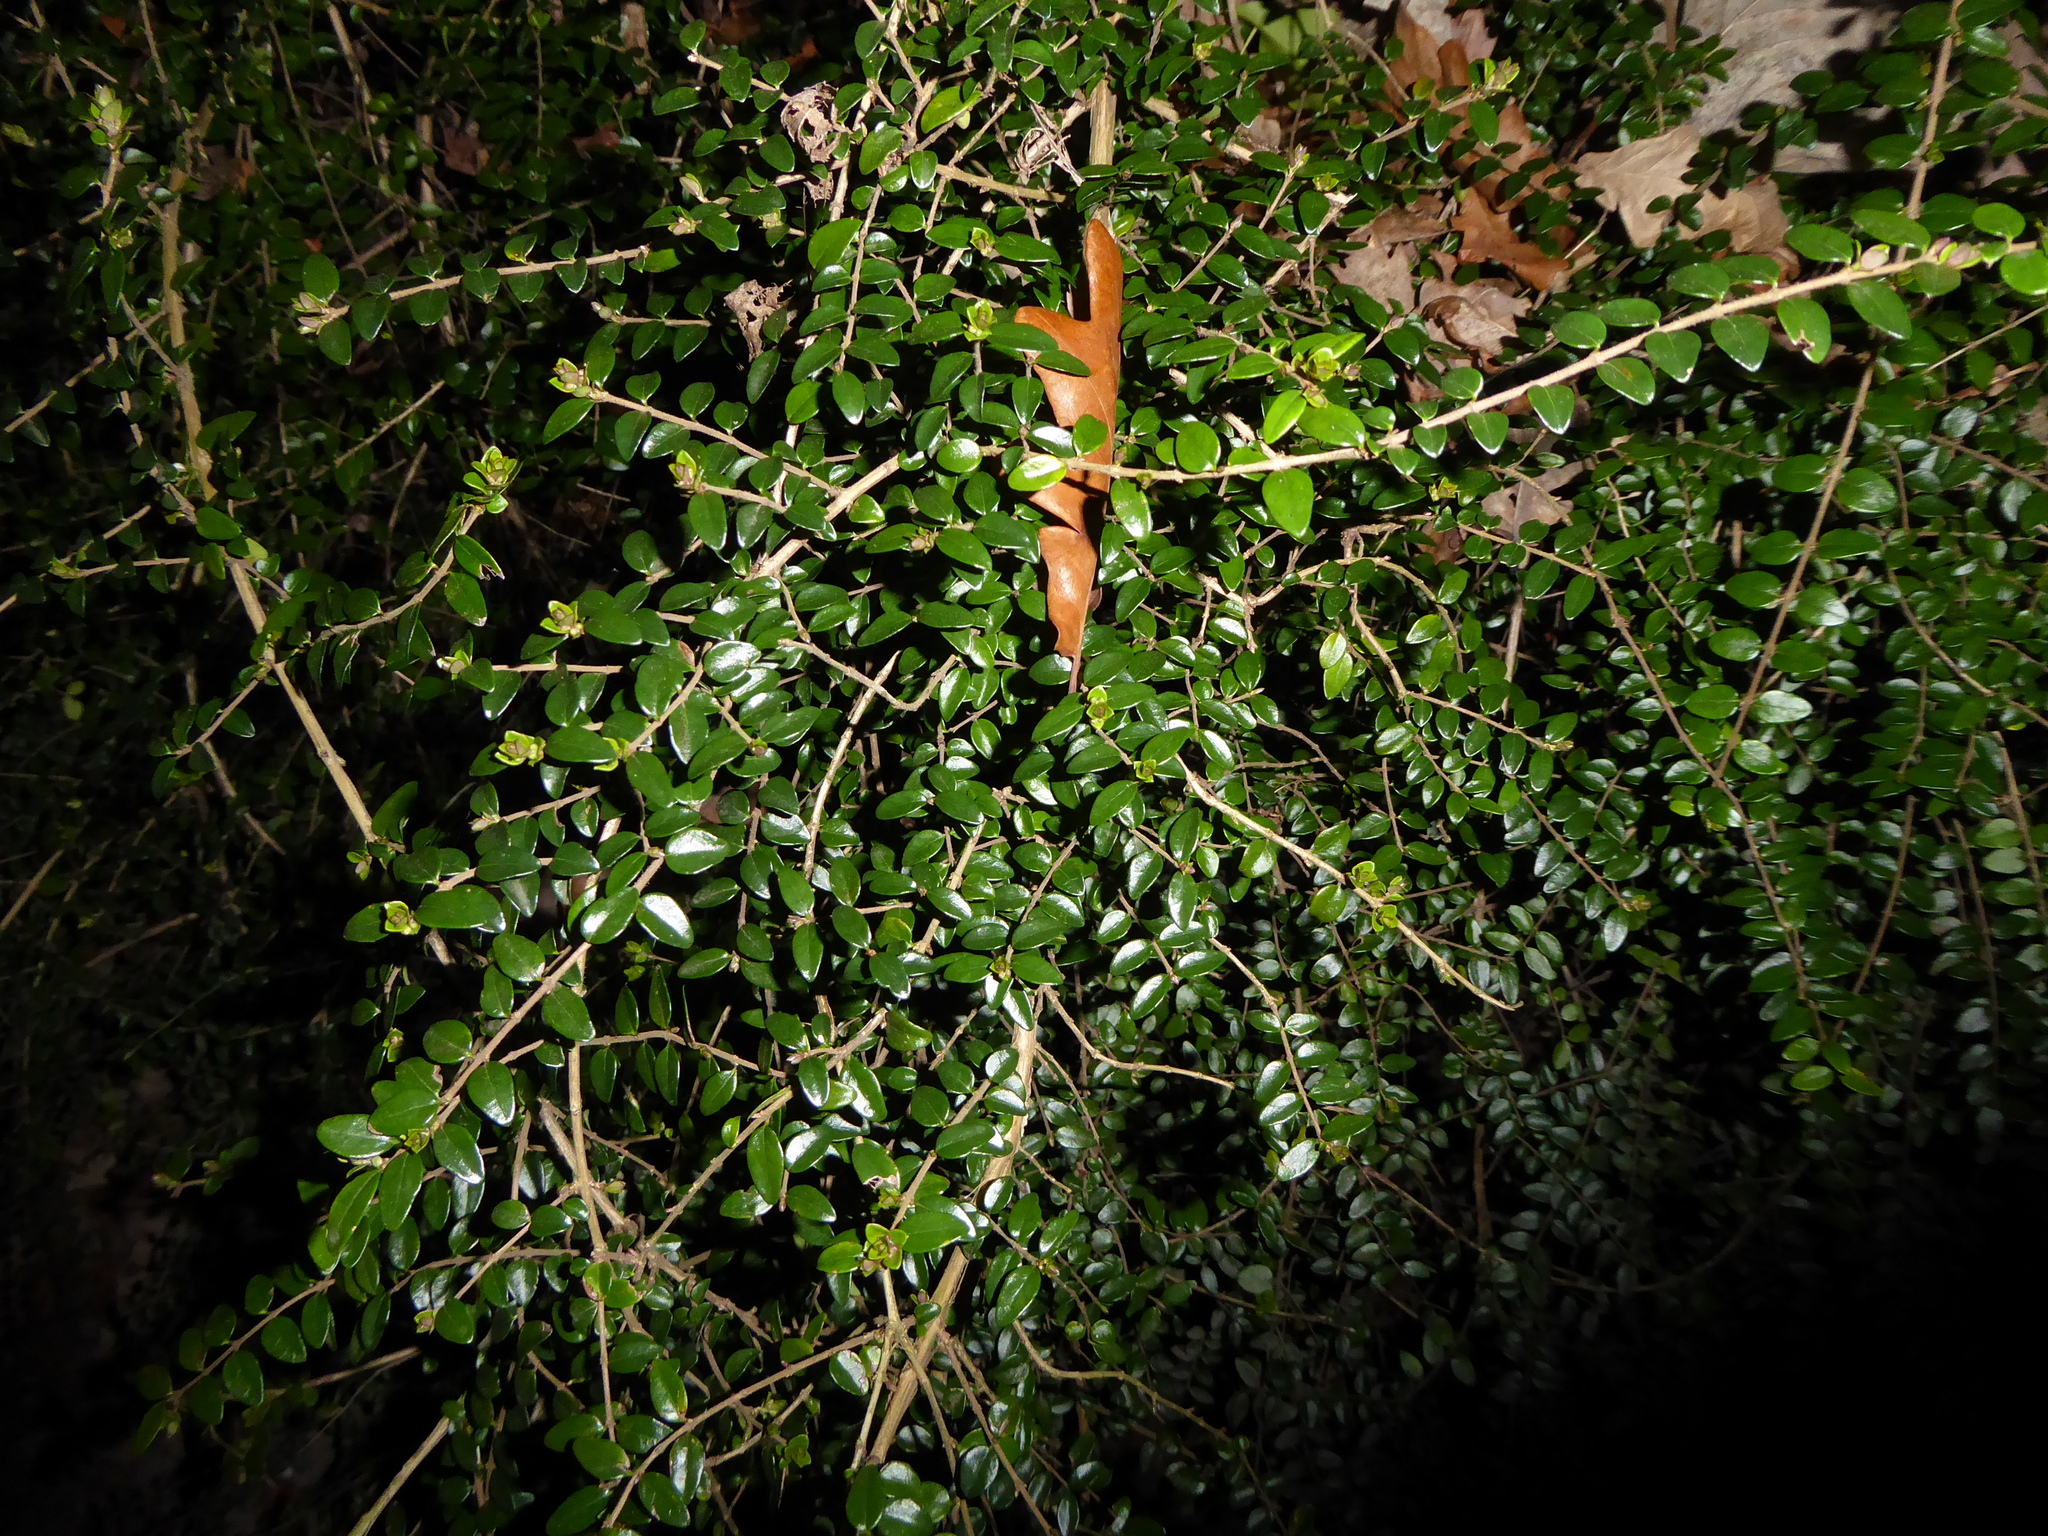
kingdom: Plantae
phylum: Tracheophyta
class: Magnoliopsida
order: Dipsacales
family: Caprifoliaceae
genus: Lonicera
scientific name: Lonicera ligustrina
